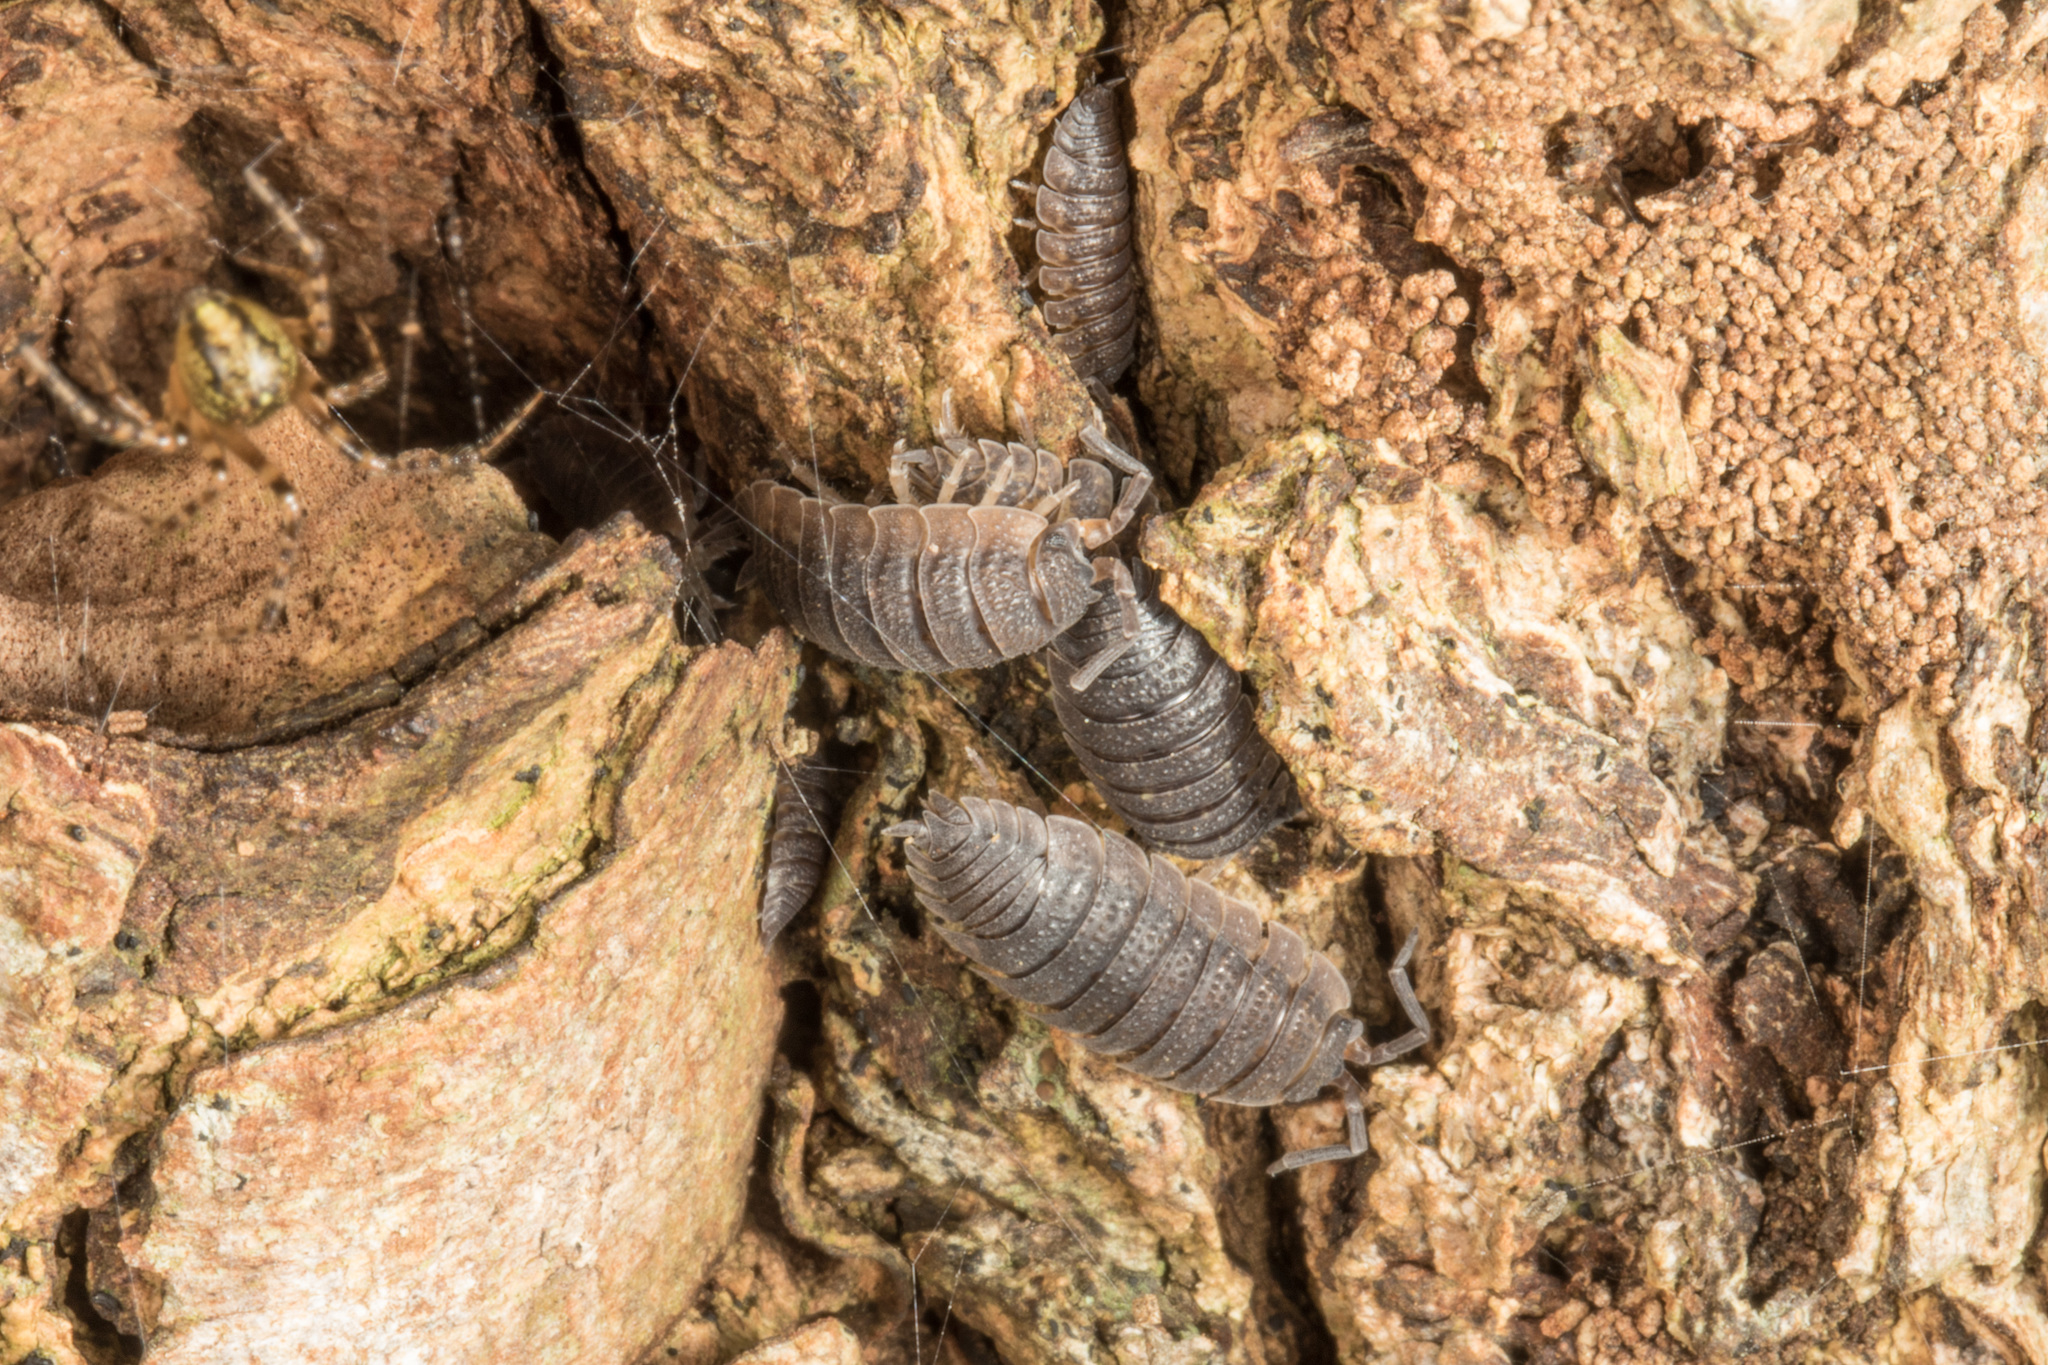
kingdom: Animalia
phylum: Arthropoda
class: Malacostraca
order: Isopoda
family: Porcellionidae
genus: Porcellio
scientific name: Porcellio scaber
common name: Common rough woodlouse
